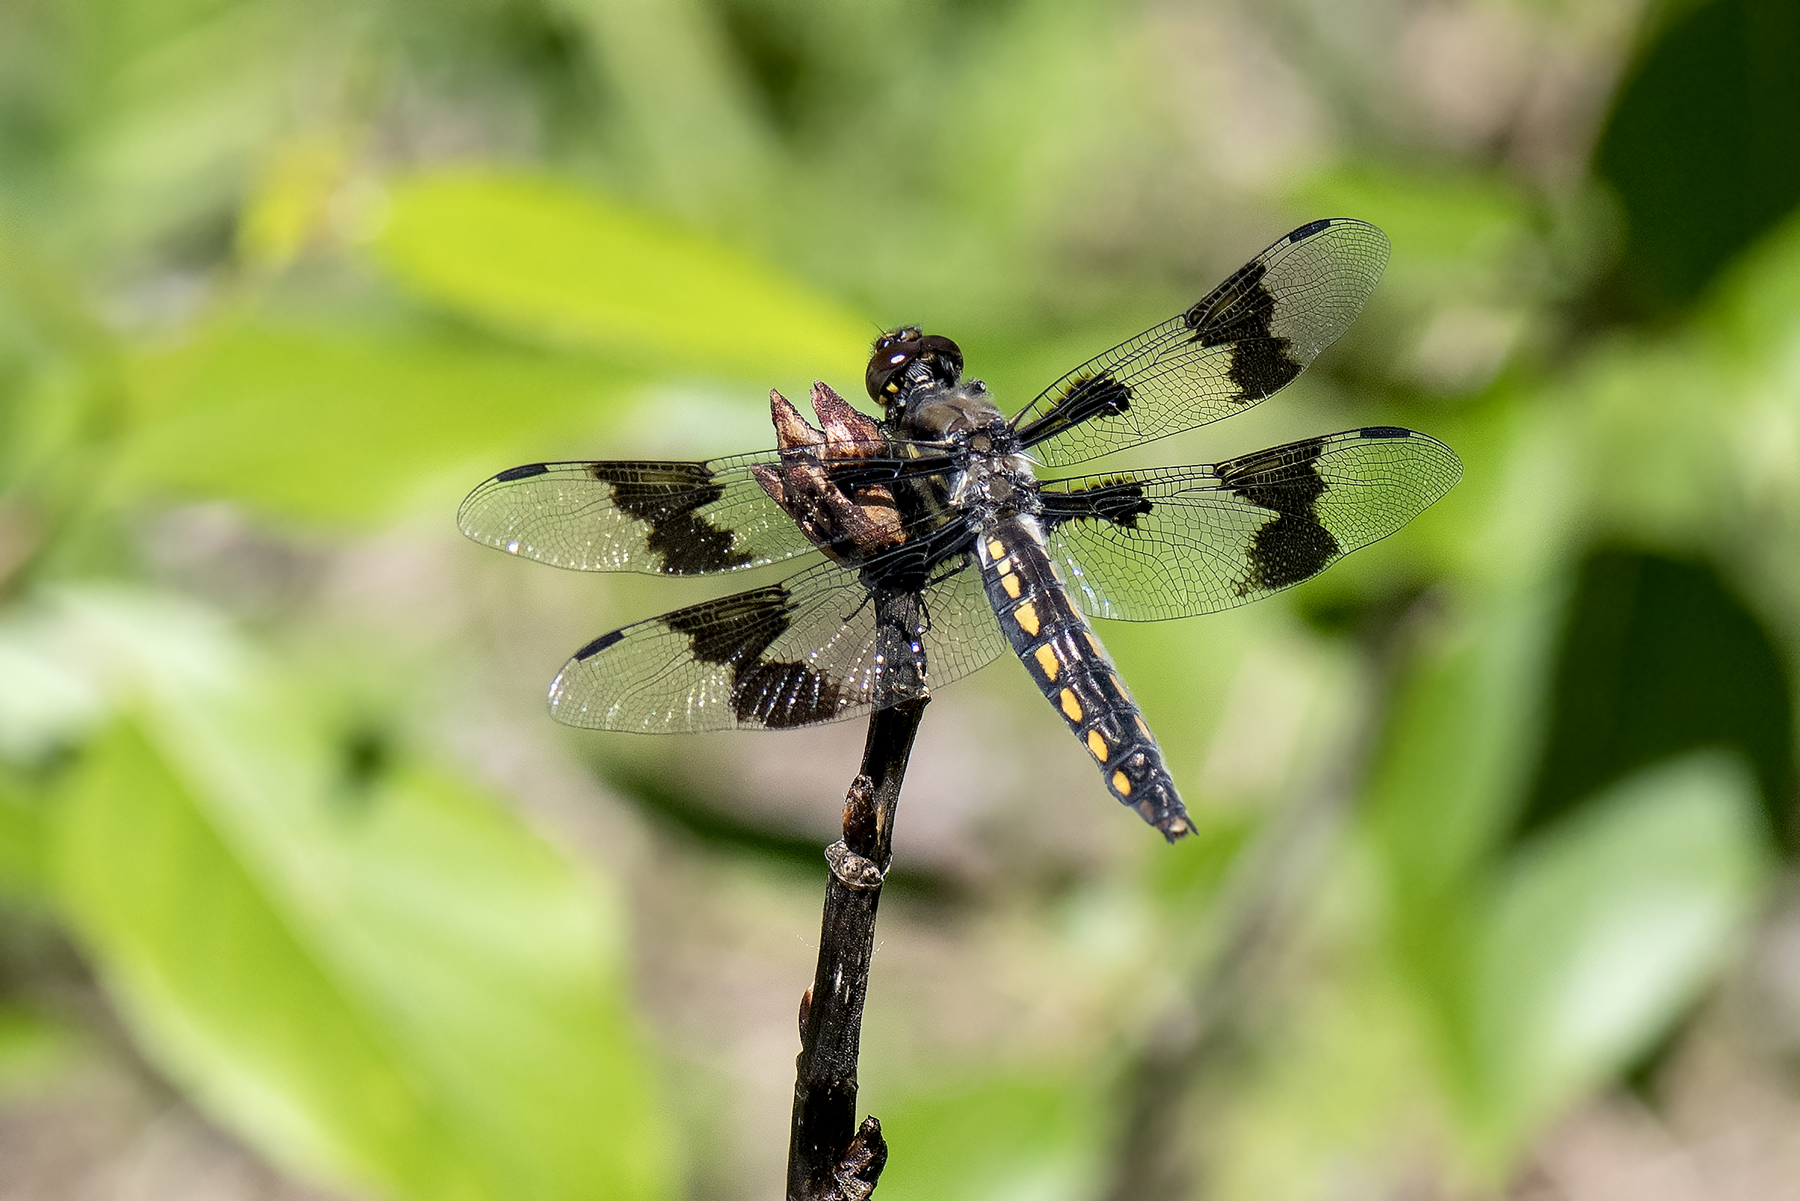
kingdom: Animalia
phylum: Arthropoda
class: Insecta
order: Odonata
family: Libellulidae
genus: Libellula
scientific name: Libellula forensis
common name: Eight-spotted skimmer
